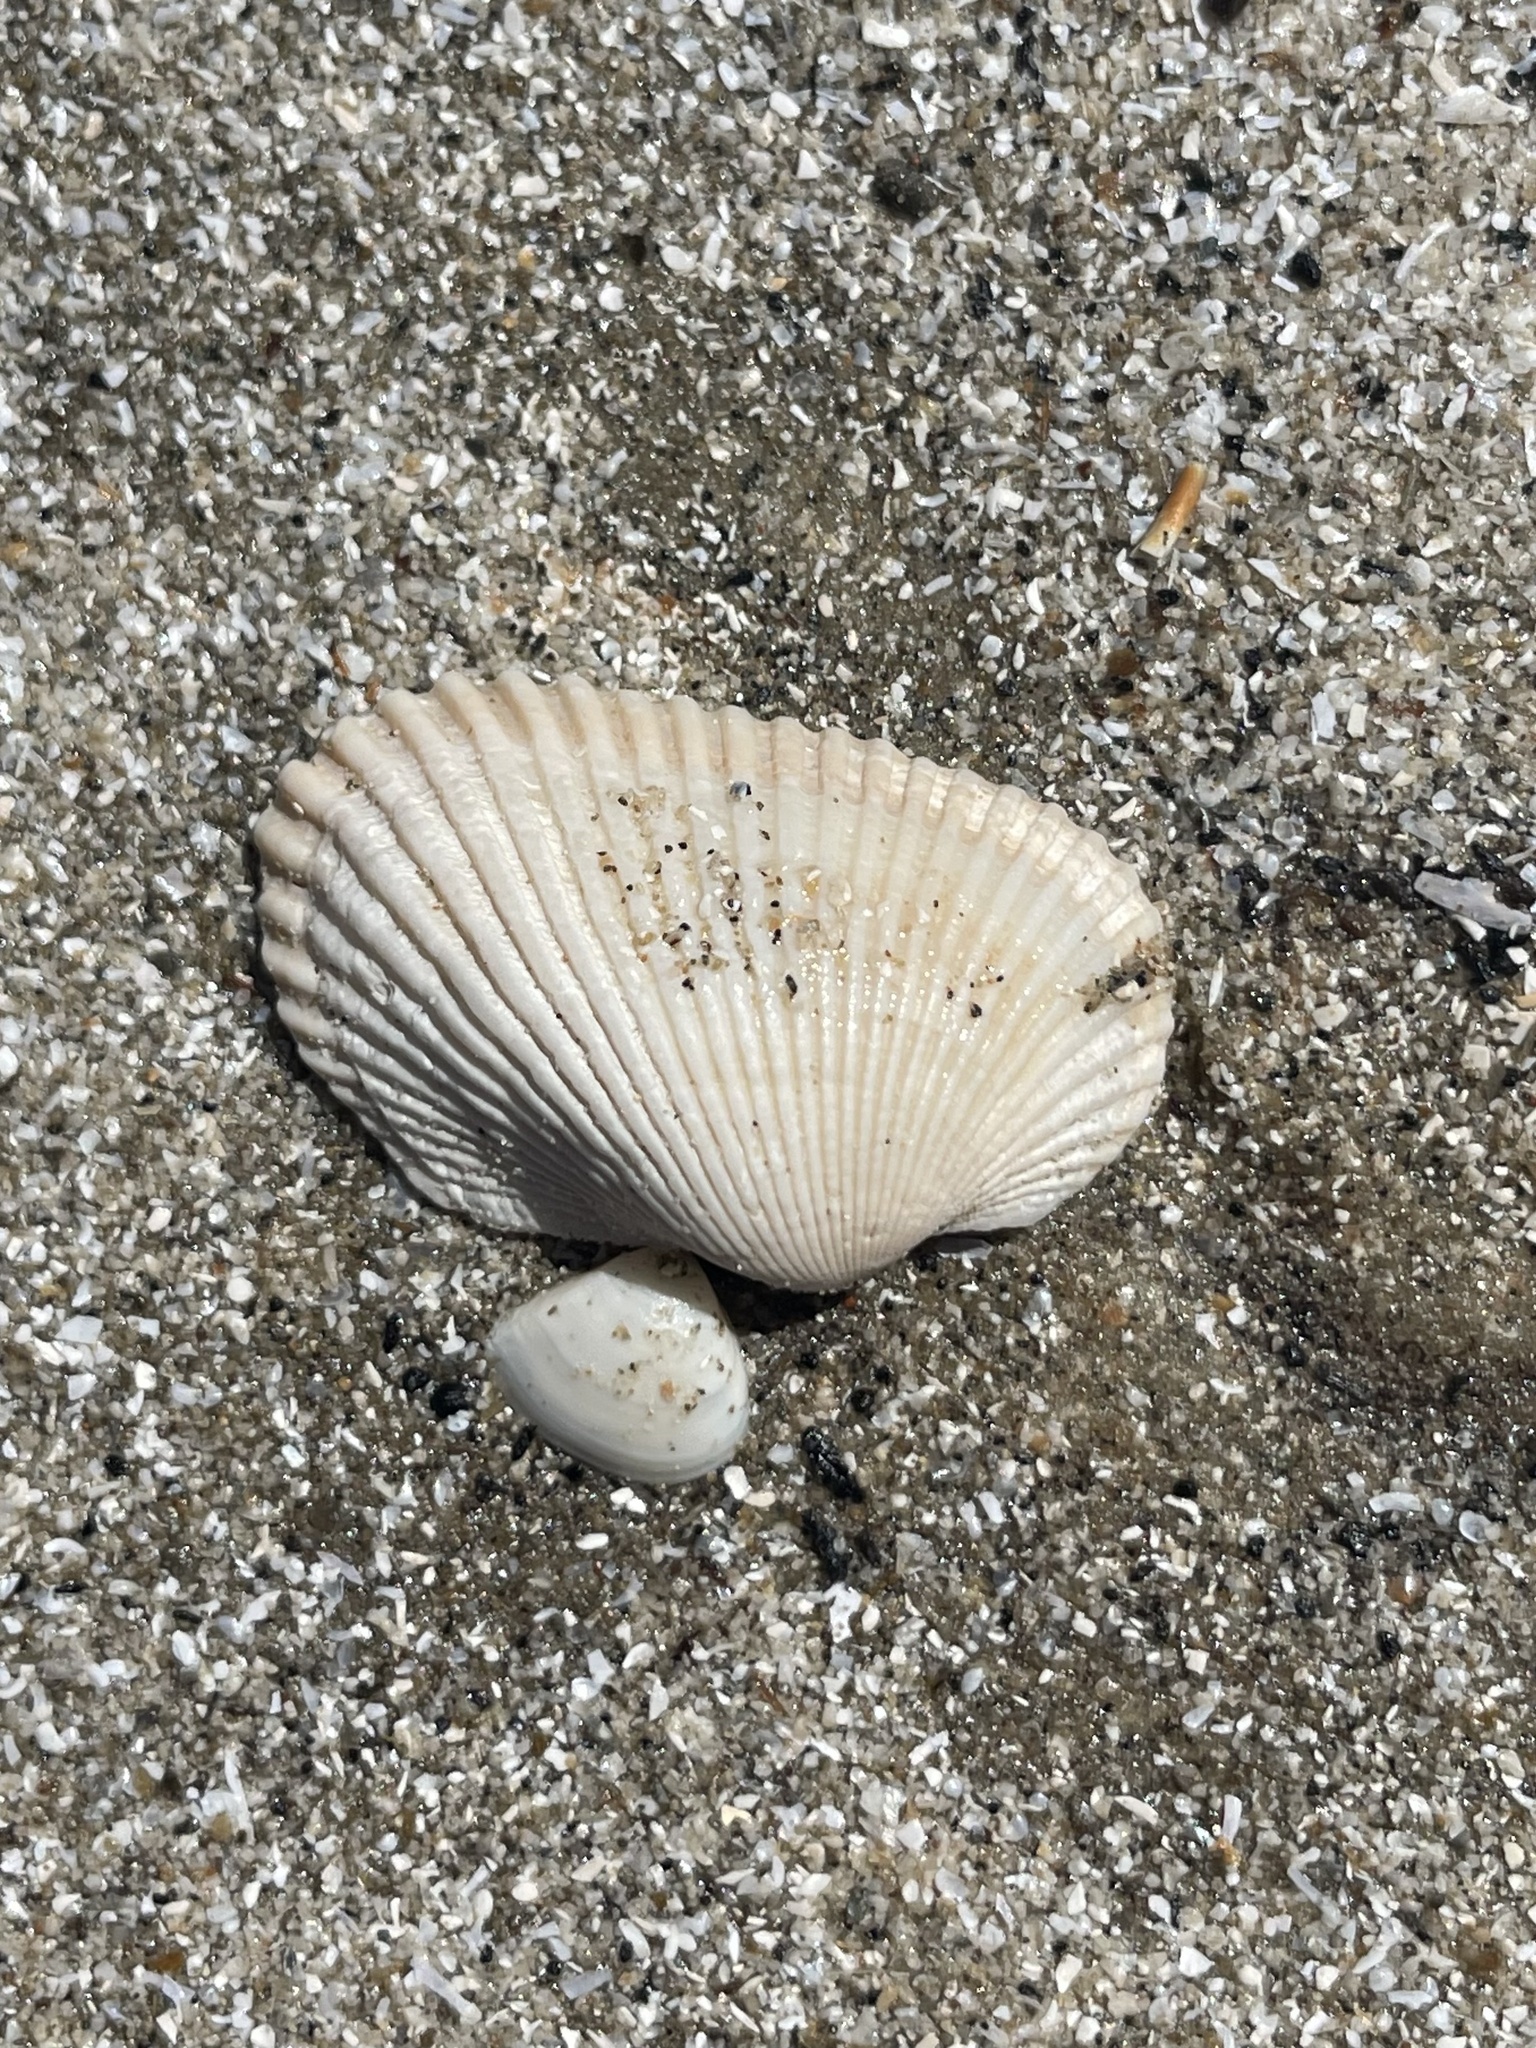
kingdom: Animalia
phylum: Mollusca
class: Bivalvia
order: Arcida
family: Arcidae
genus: Anadara
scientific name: Anadara transversa
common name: Transverse ark
